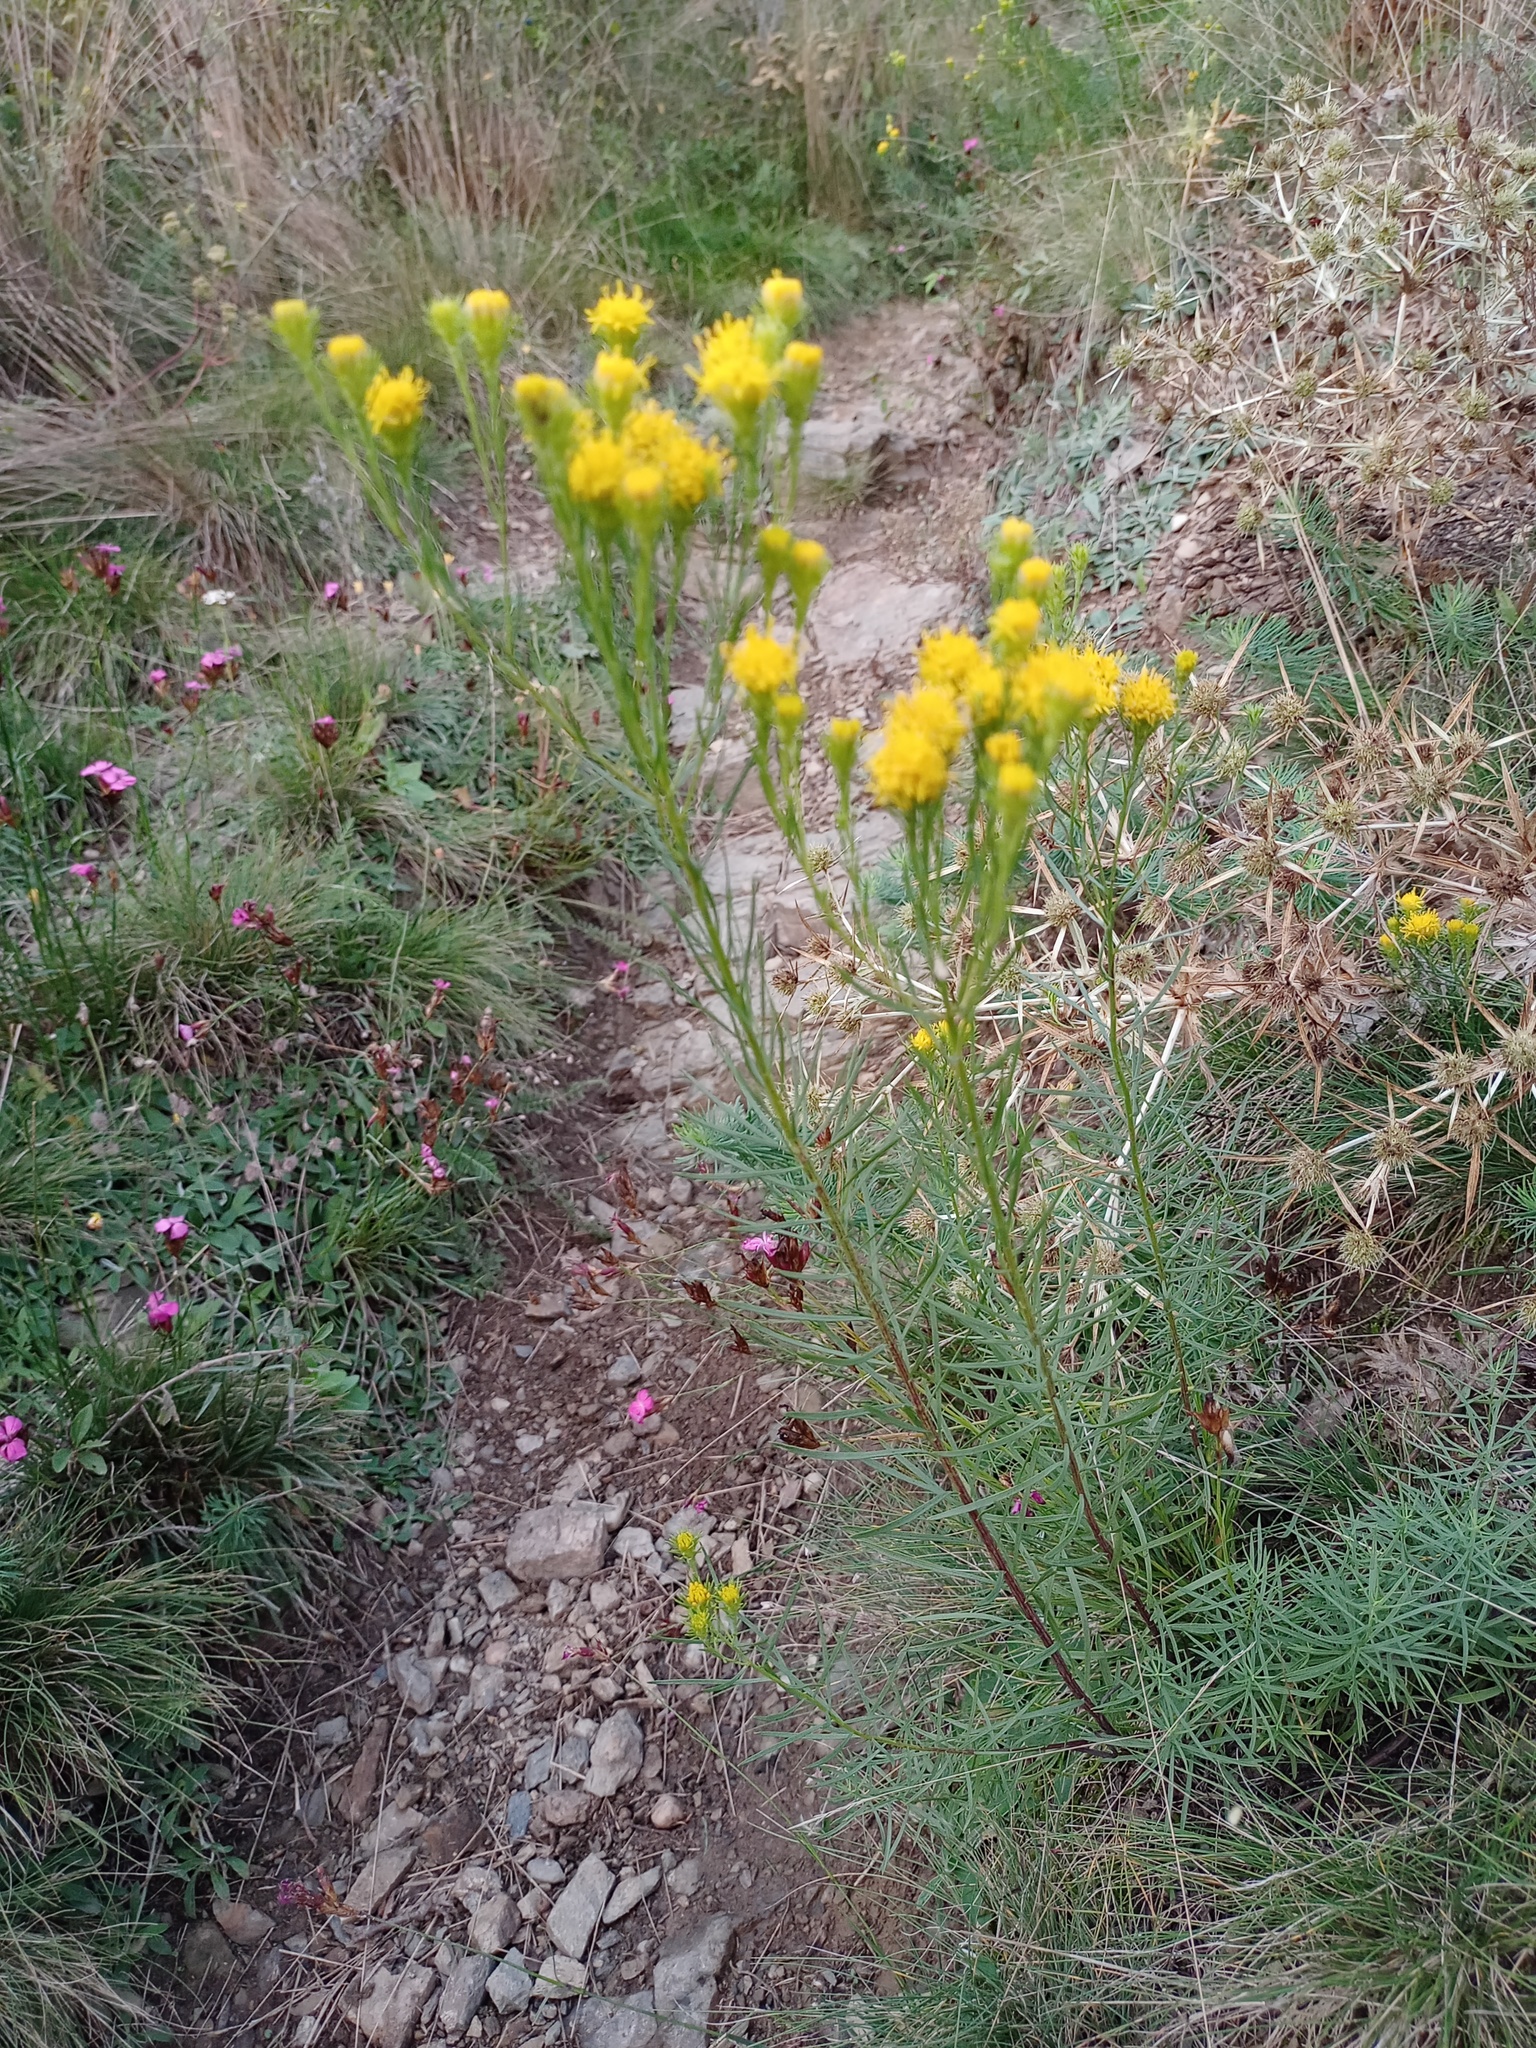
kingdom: Plantae
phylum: Tracheophyta
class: Magnoliopsida
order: Asterales
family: Asteraceae
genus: Galatella
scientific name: Galatella linosyris
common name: Goldilocks aster
